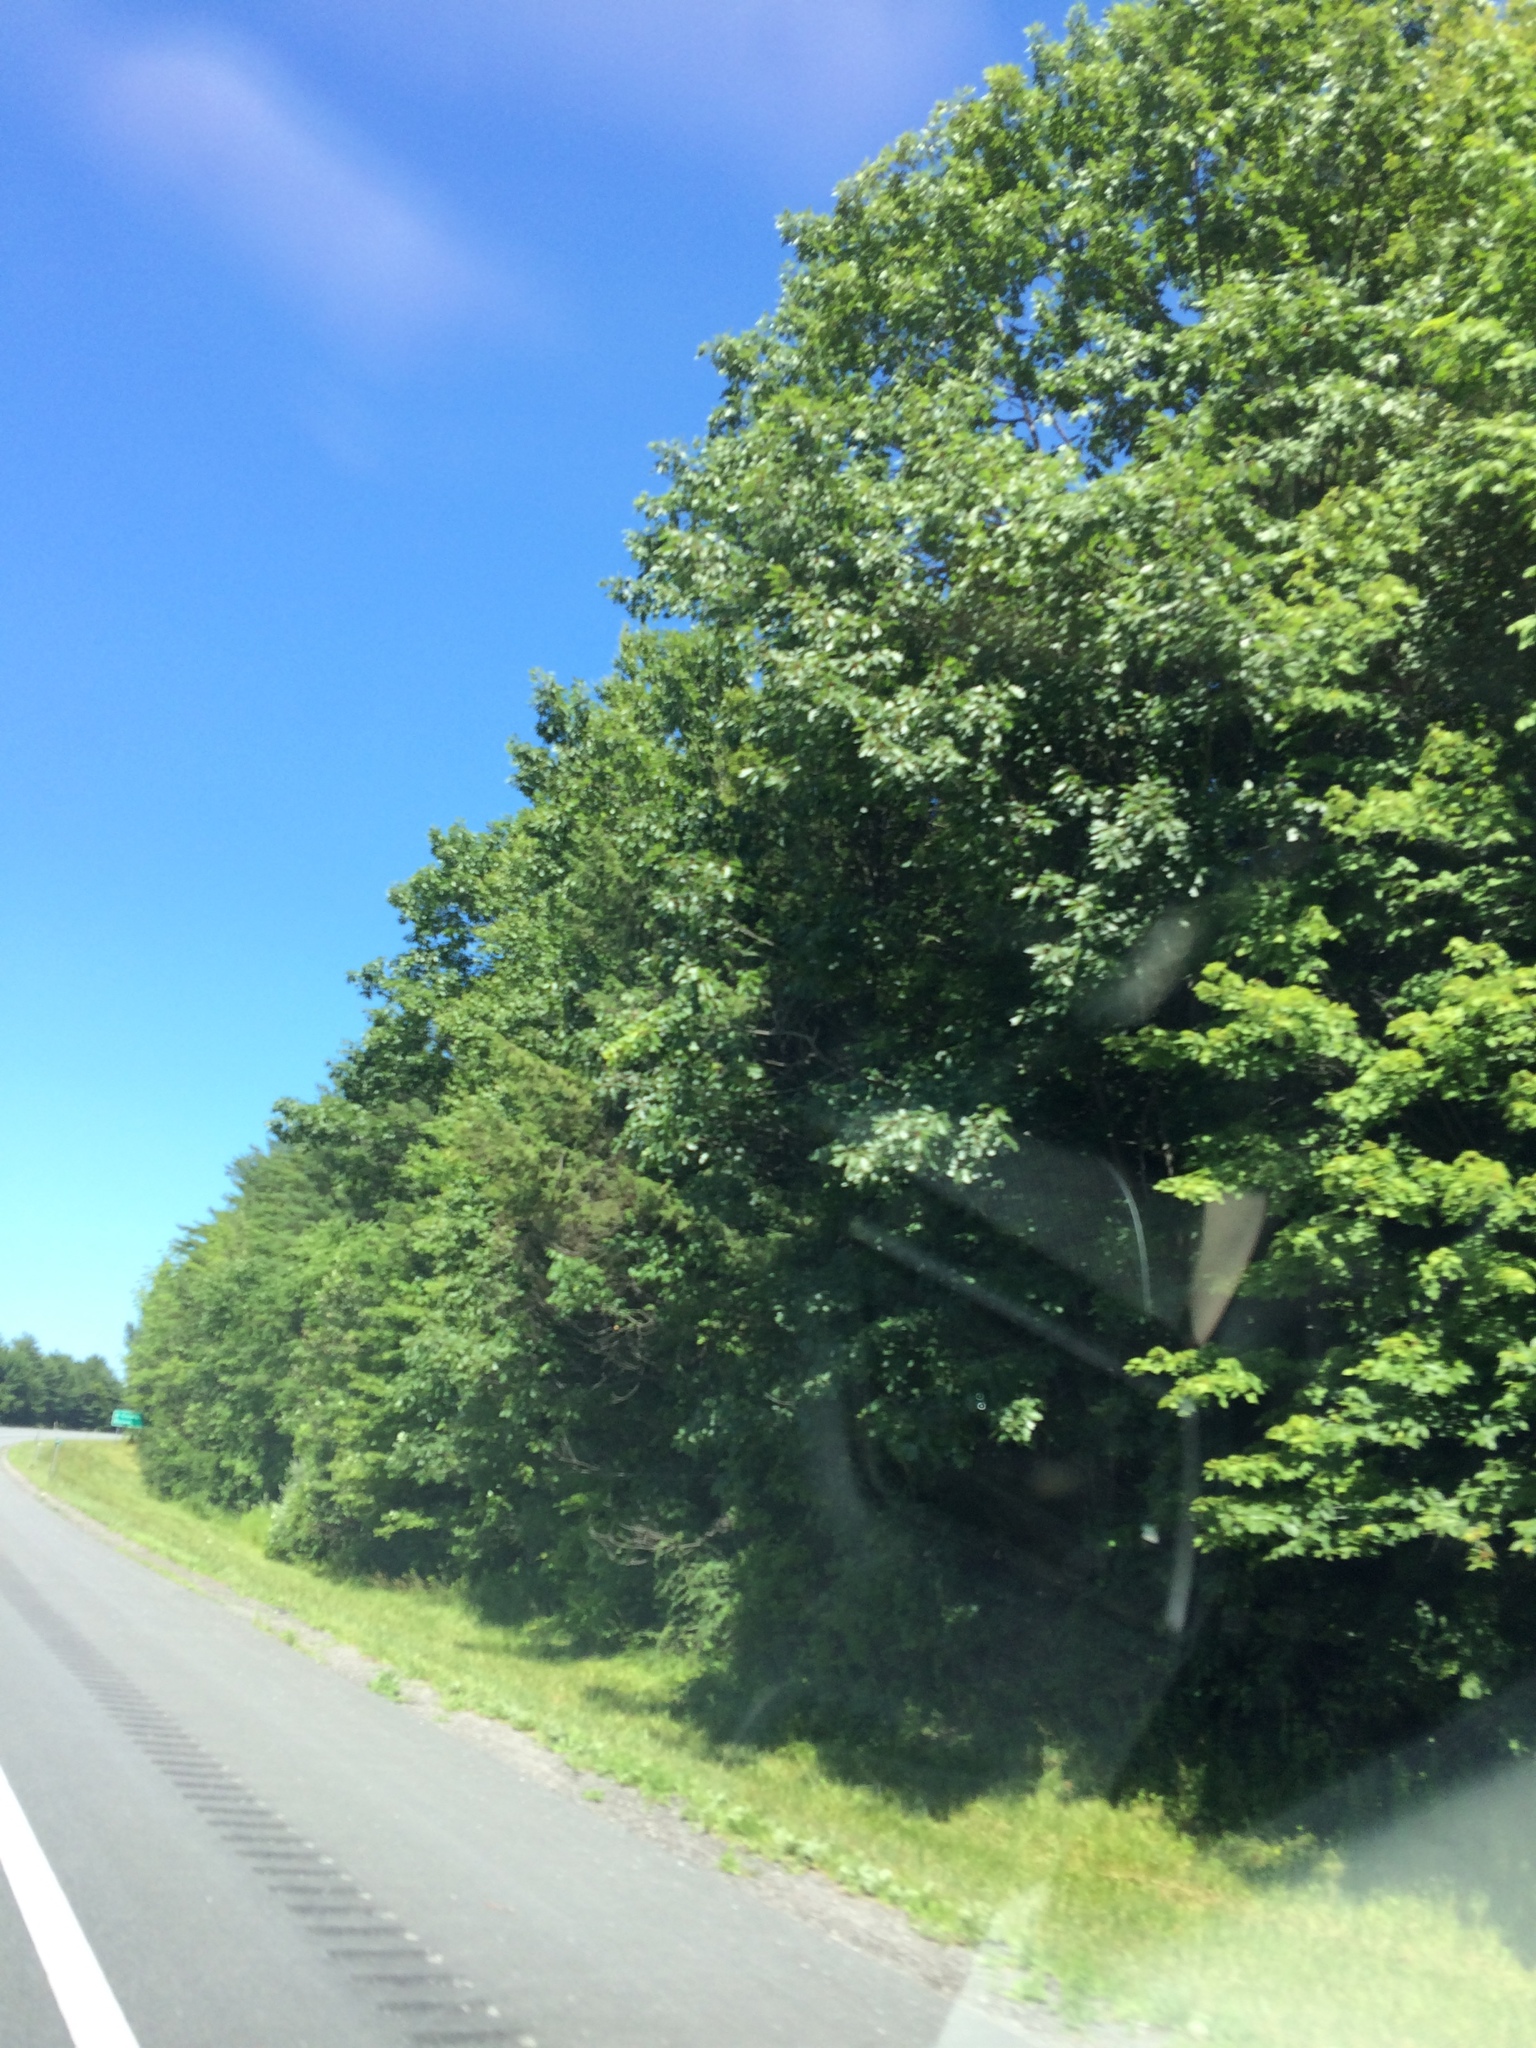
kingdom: Plantae
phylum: Tracheophyta
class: Magnoliopsida
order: Fagales
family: Fagaceae
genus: Quercus
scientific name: Quercus rubra
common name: Red oak
